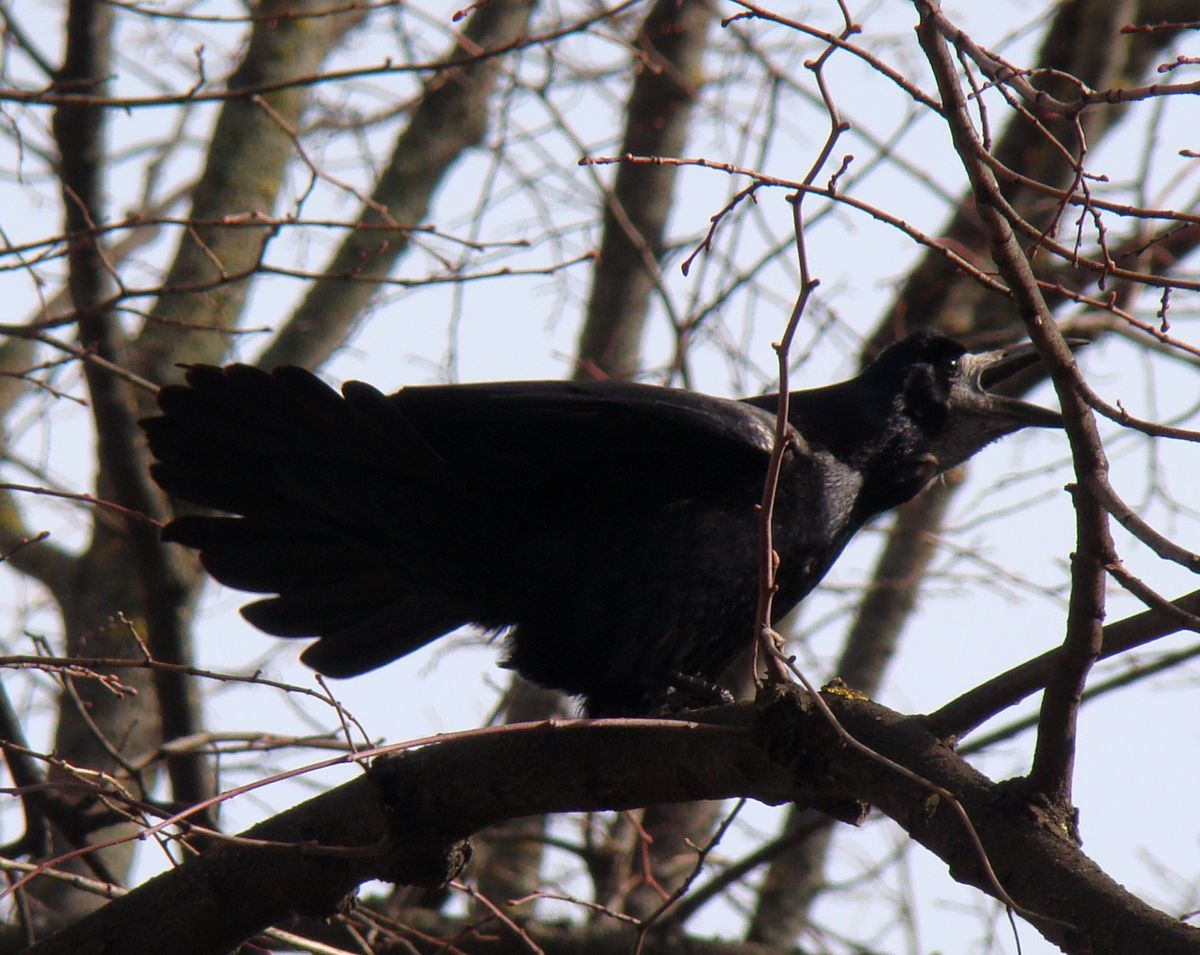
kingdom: Animalia
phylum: Chordata
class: Aves
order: Passeriformes
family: Corvidae
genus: Corvus
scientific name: Corvus frugilegus
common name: Rook
